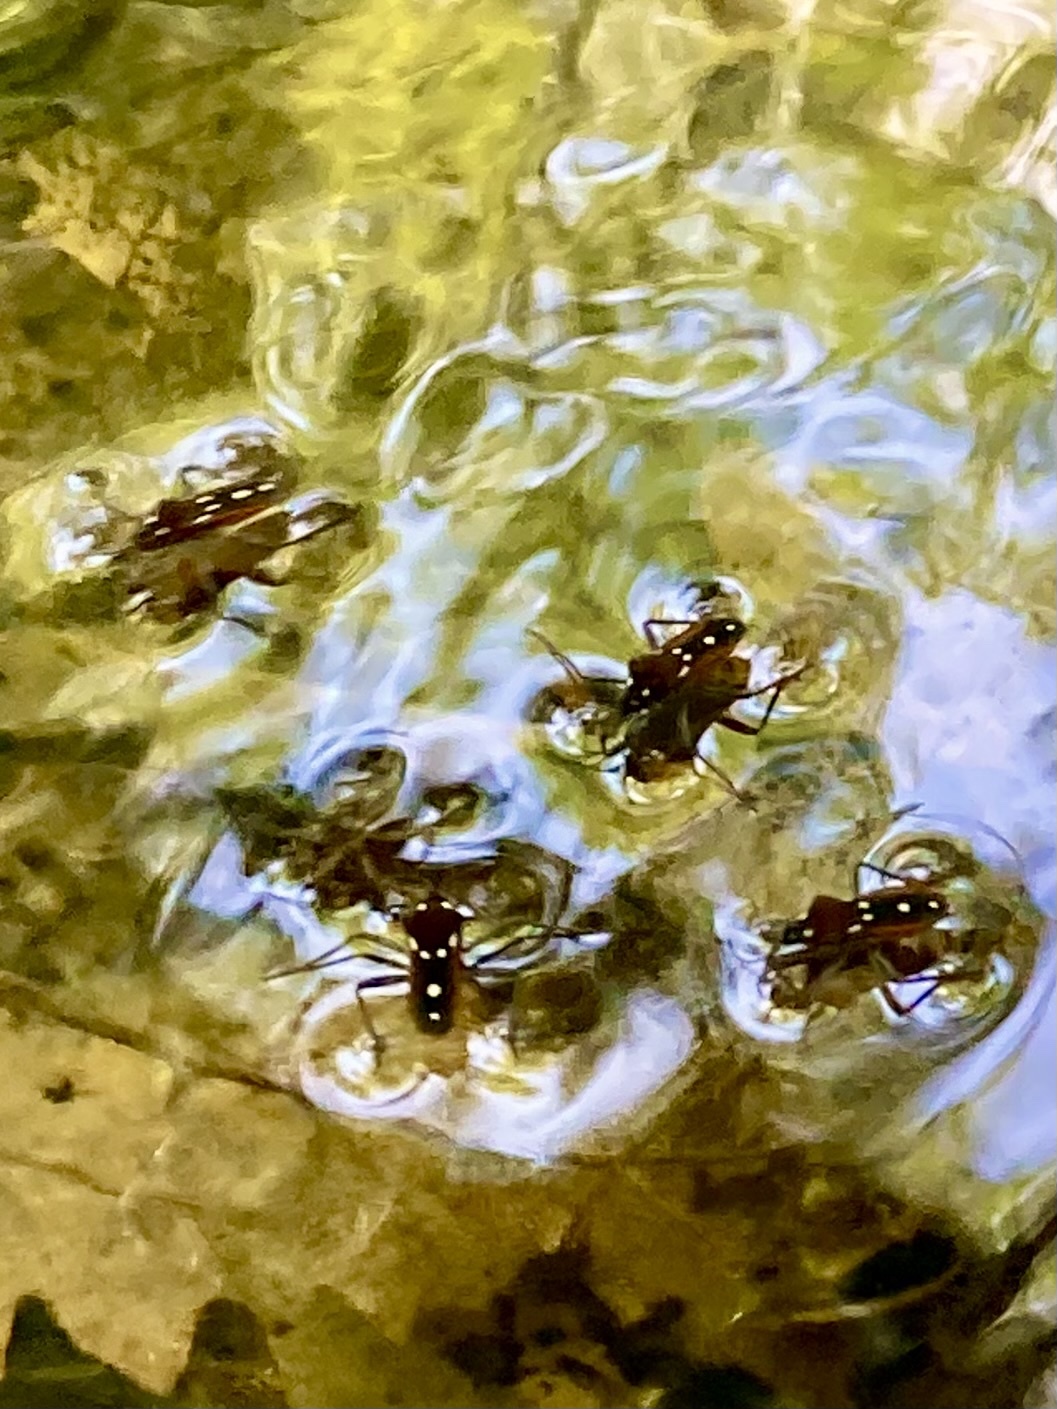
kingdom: Animalia
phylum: Arthropoda
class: Insecta
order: Hemiptera
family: Veliidae
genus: Velia
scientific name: Velia
